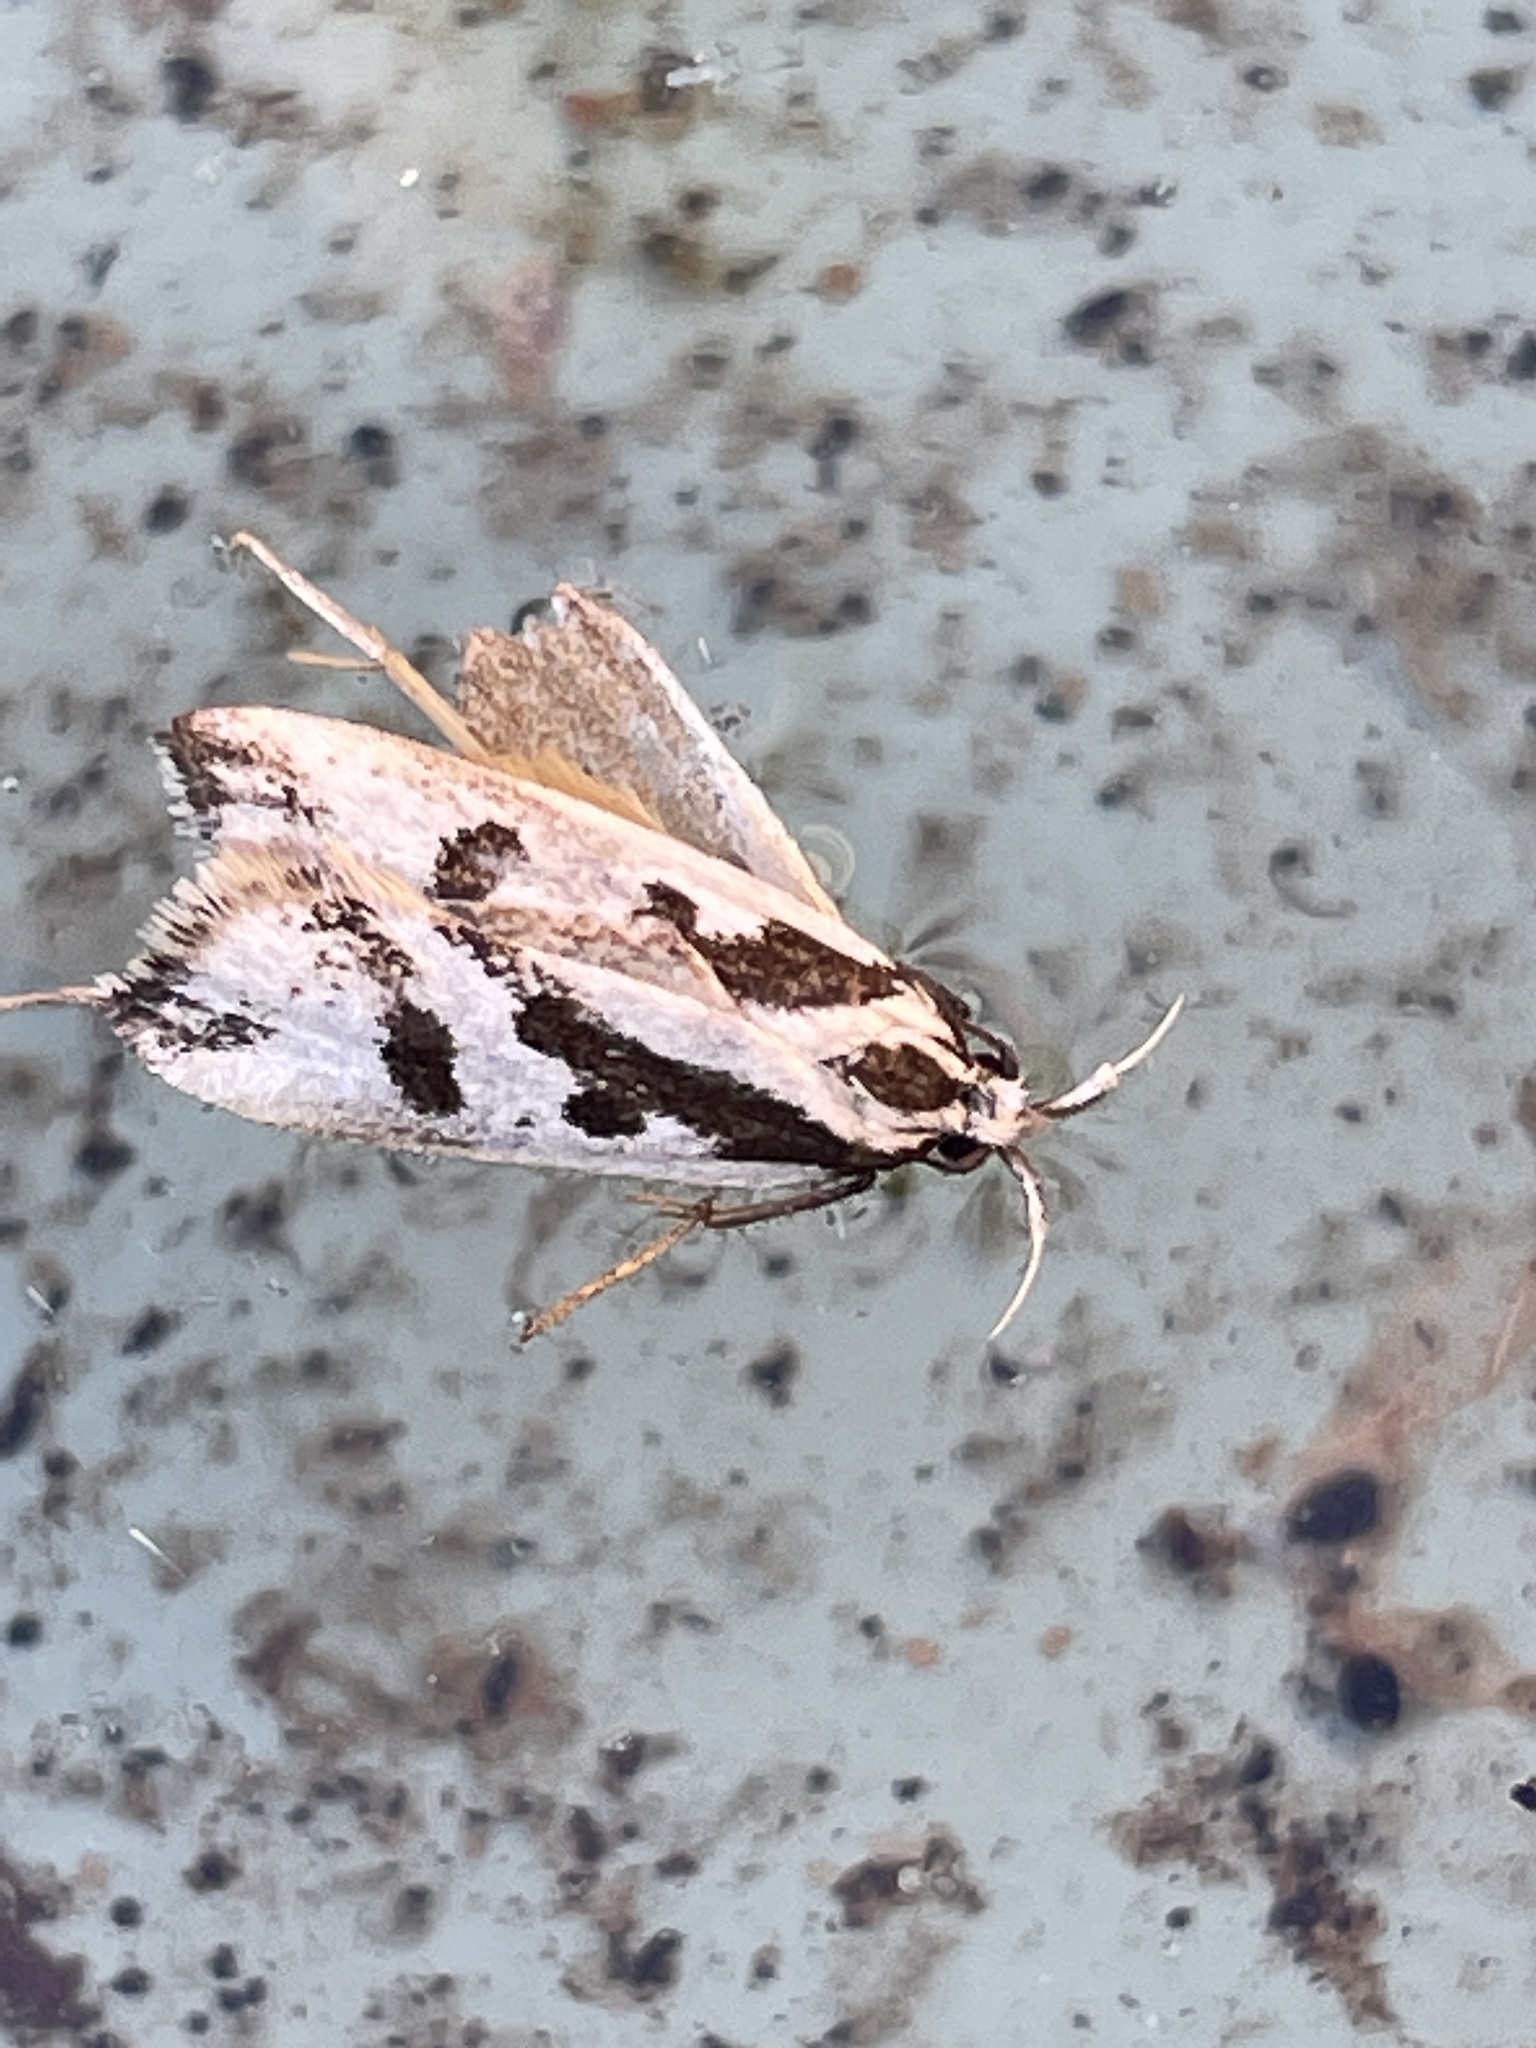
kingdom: Animalia
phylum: Arthropoda
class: Insecta
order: Lepidoptera
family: Oecophoridae
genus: Epithymema
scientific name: Epithymema incomposita
